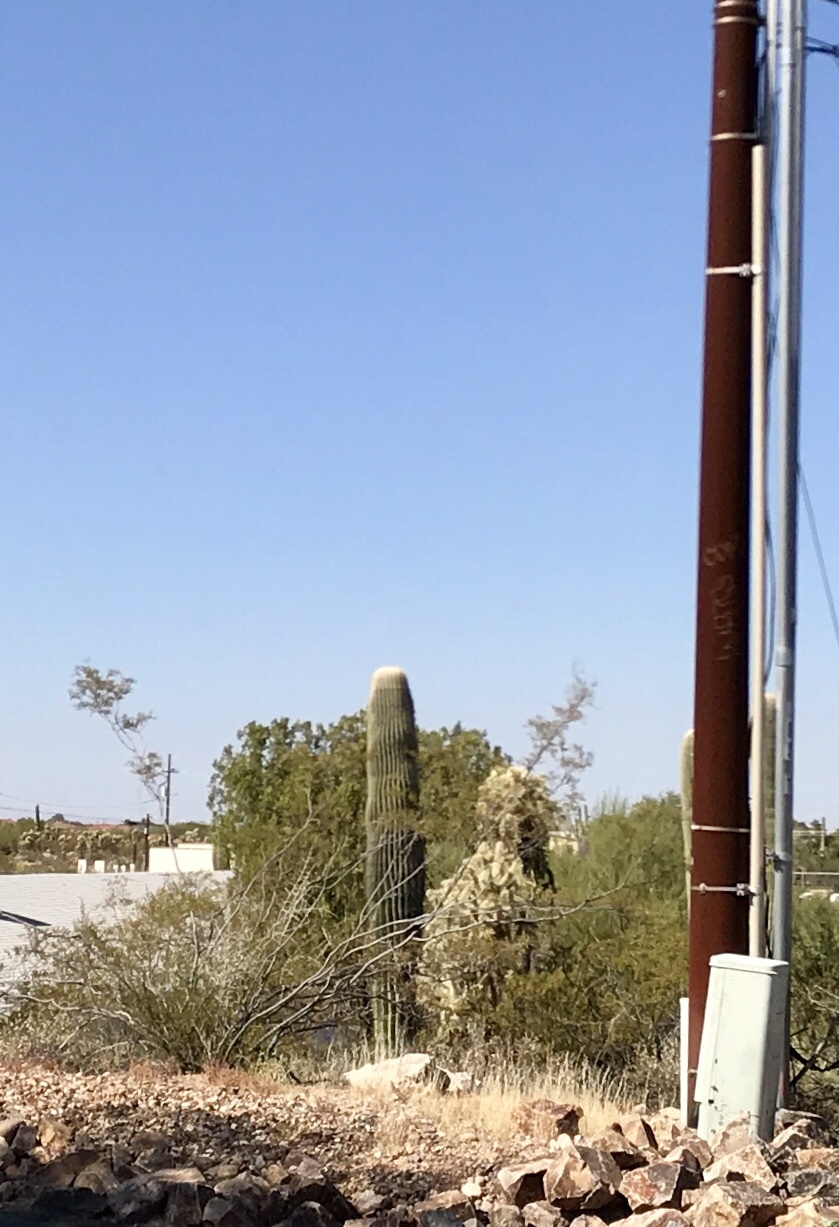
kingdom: Plantae
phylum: Tracheophyta
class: Magnoliopsida
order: Caryophyllales
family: Cactaceae
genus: Carnegiea
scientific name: Carnegiea gigantea
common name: Saguaro
